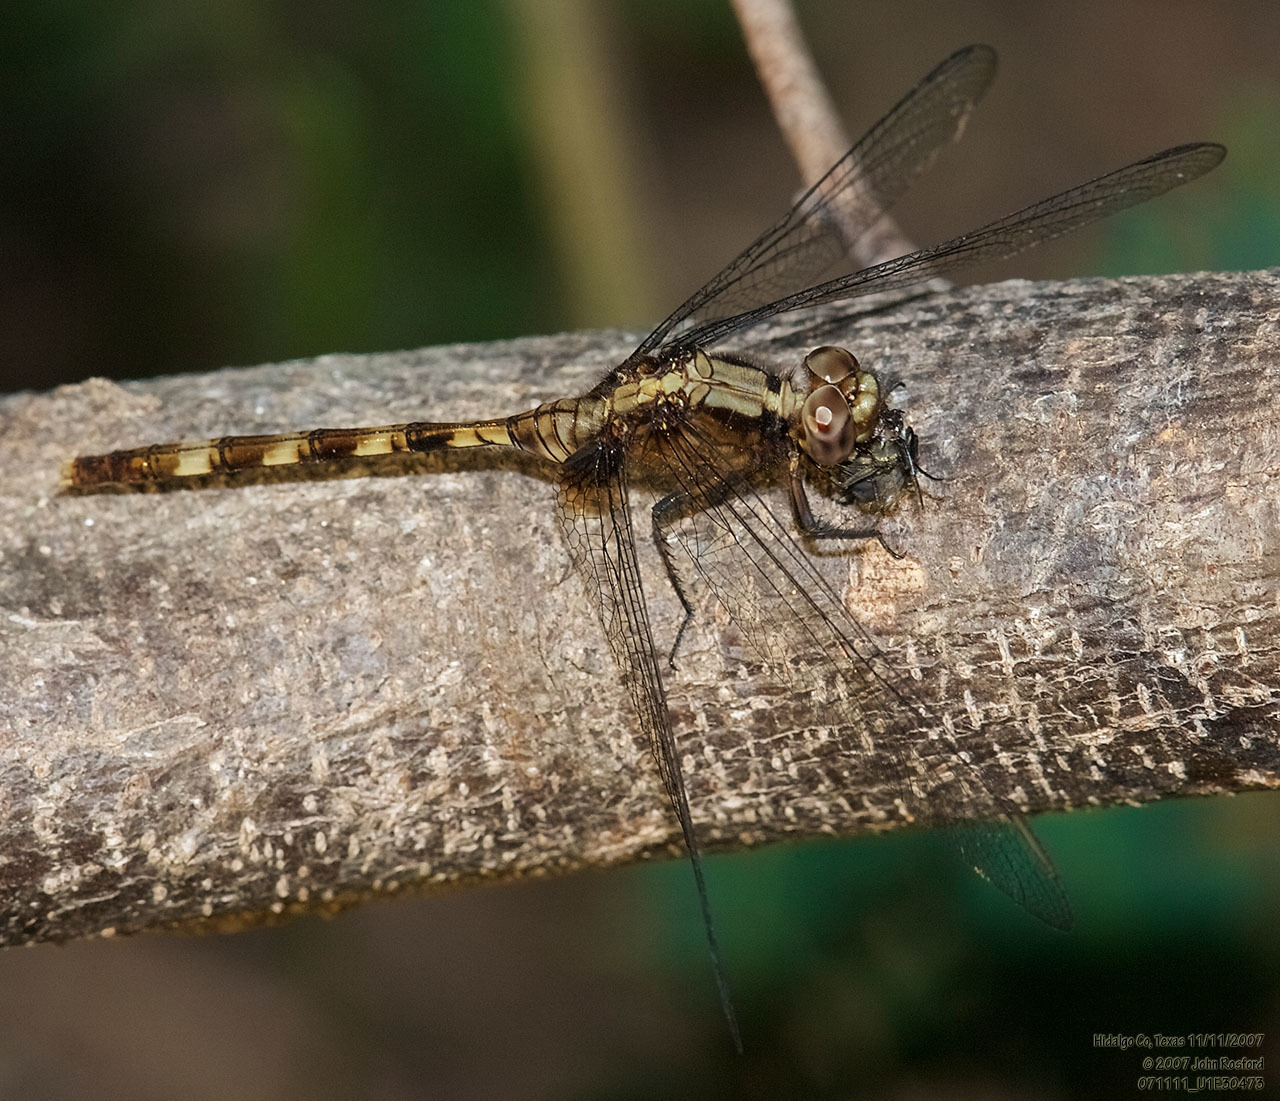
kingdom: Animalia
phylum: Arthropoda
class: Insecta
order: Odonata
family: Libellulidae
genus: Erythemis
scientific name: Erythemis plebeja
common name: Pin-tailed pondhawk
